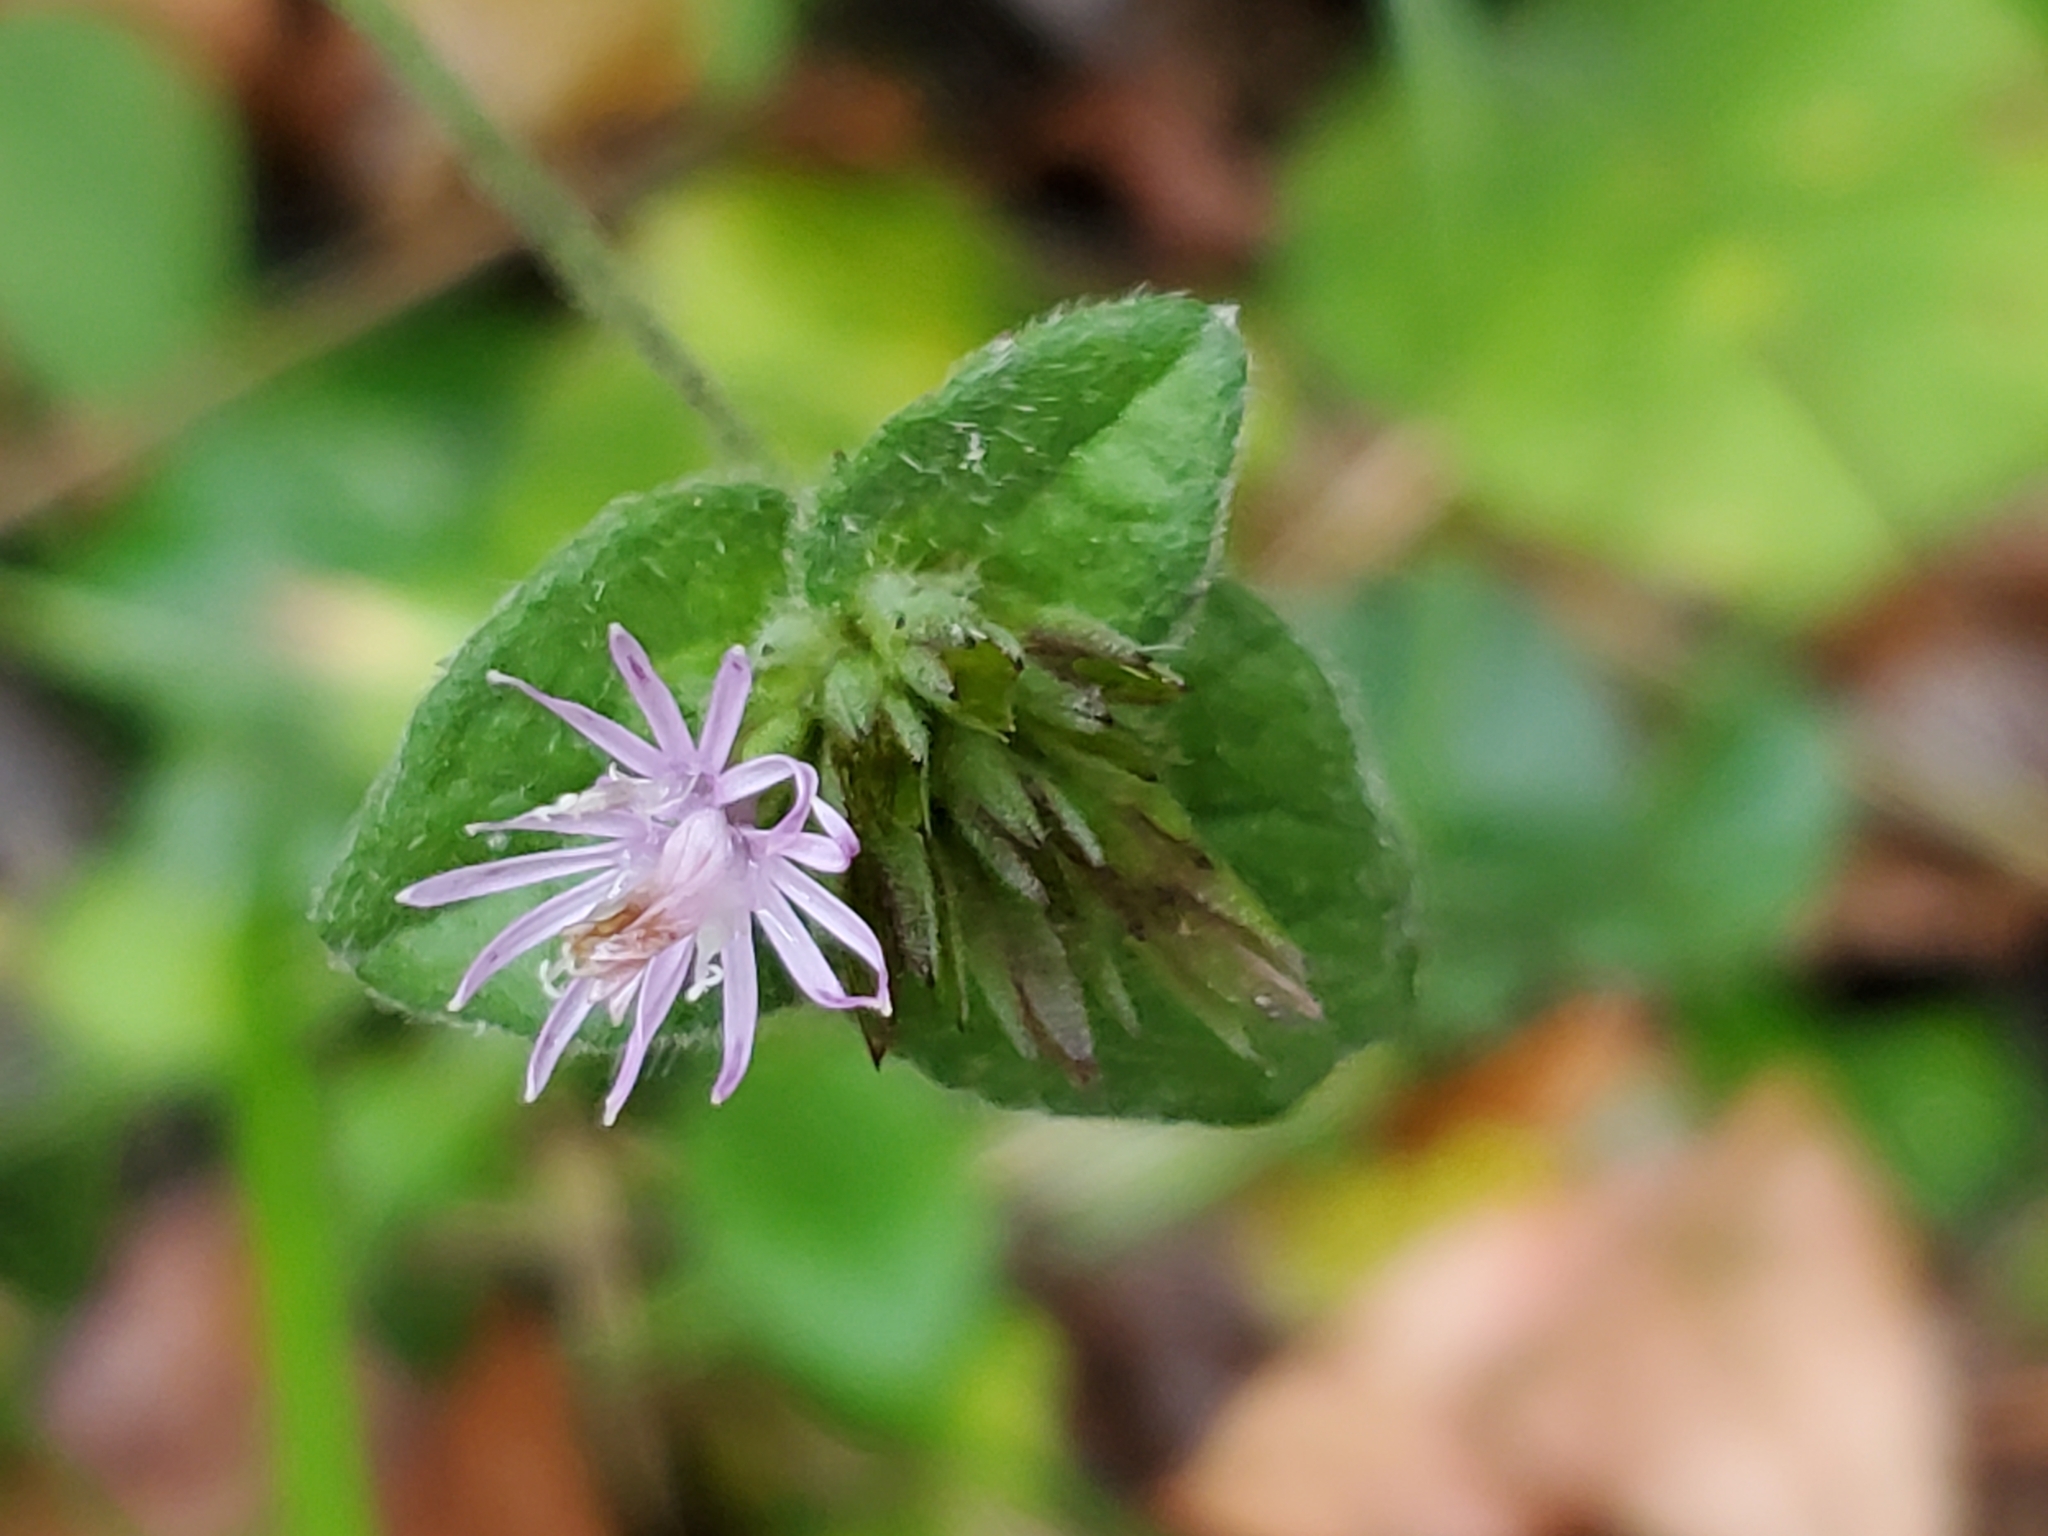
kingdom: Plantae
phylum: Tracheophyta
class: Magnoliopsida
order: Asterales
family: Asteraceae
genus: Elephantopus
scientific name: Elephantopus tomentosus
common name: Tobacco-weed
